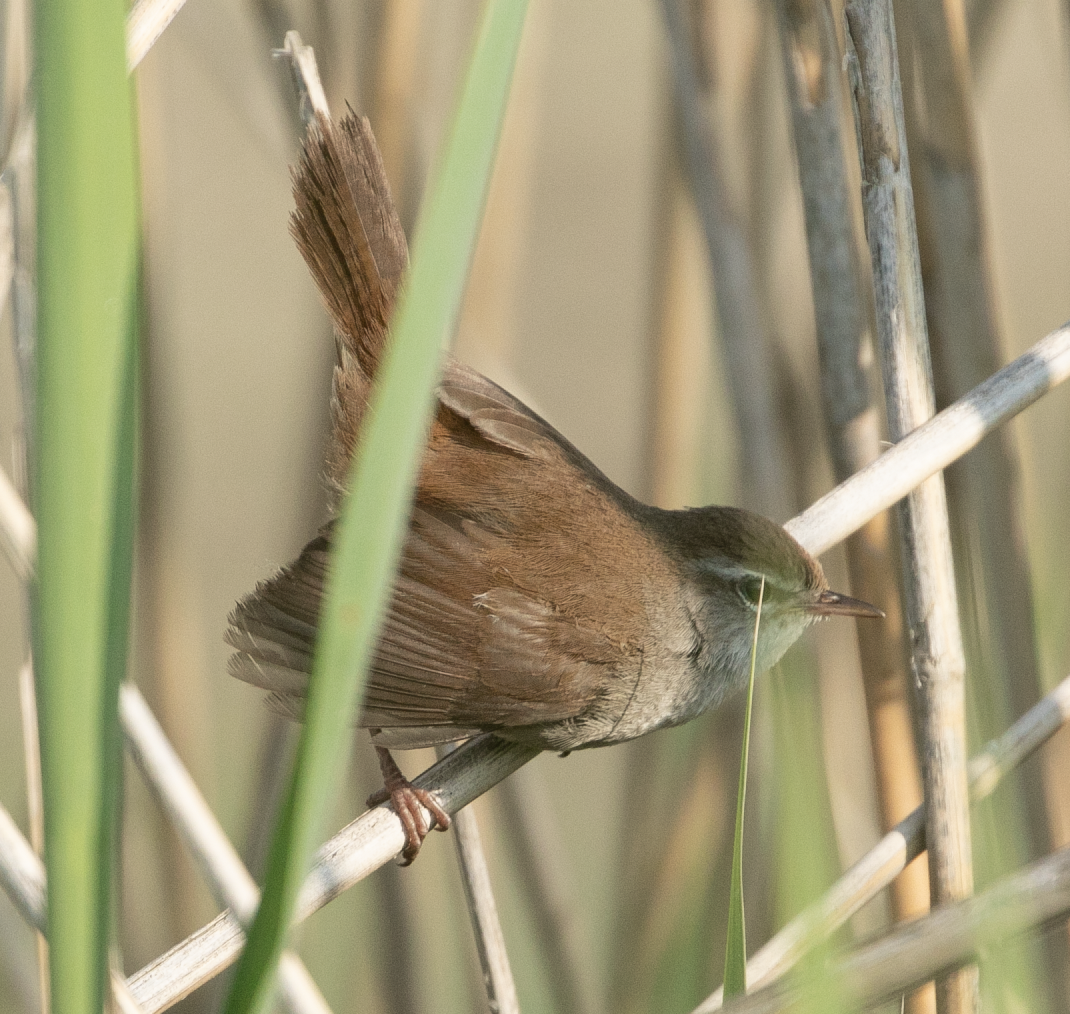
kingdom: Animalia
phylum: Chordata
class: Aves
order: Passeriformes
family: Cettiidae
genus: Cettia
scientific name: Cettia cetti
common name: Cetti's warbler
